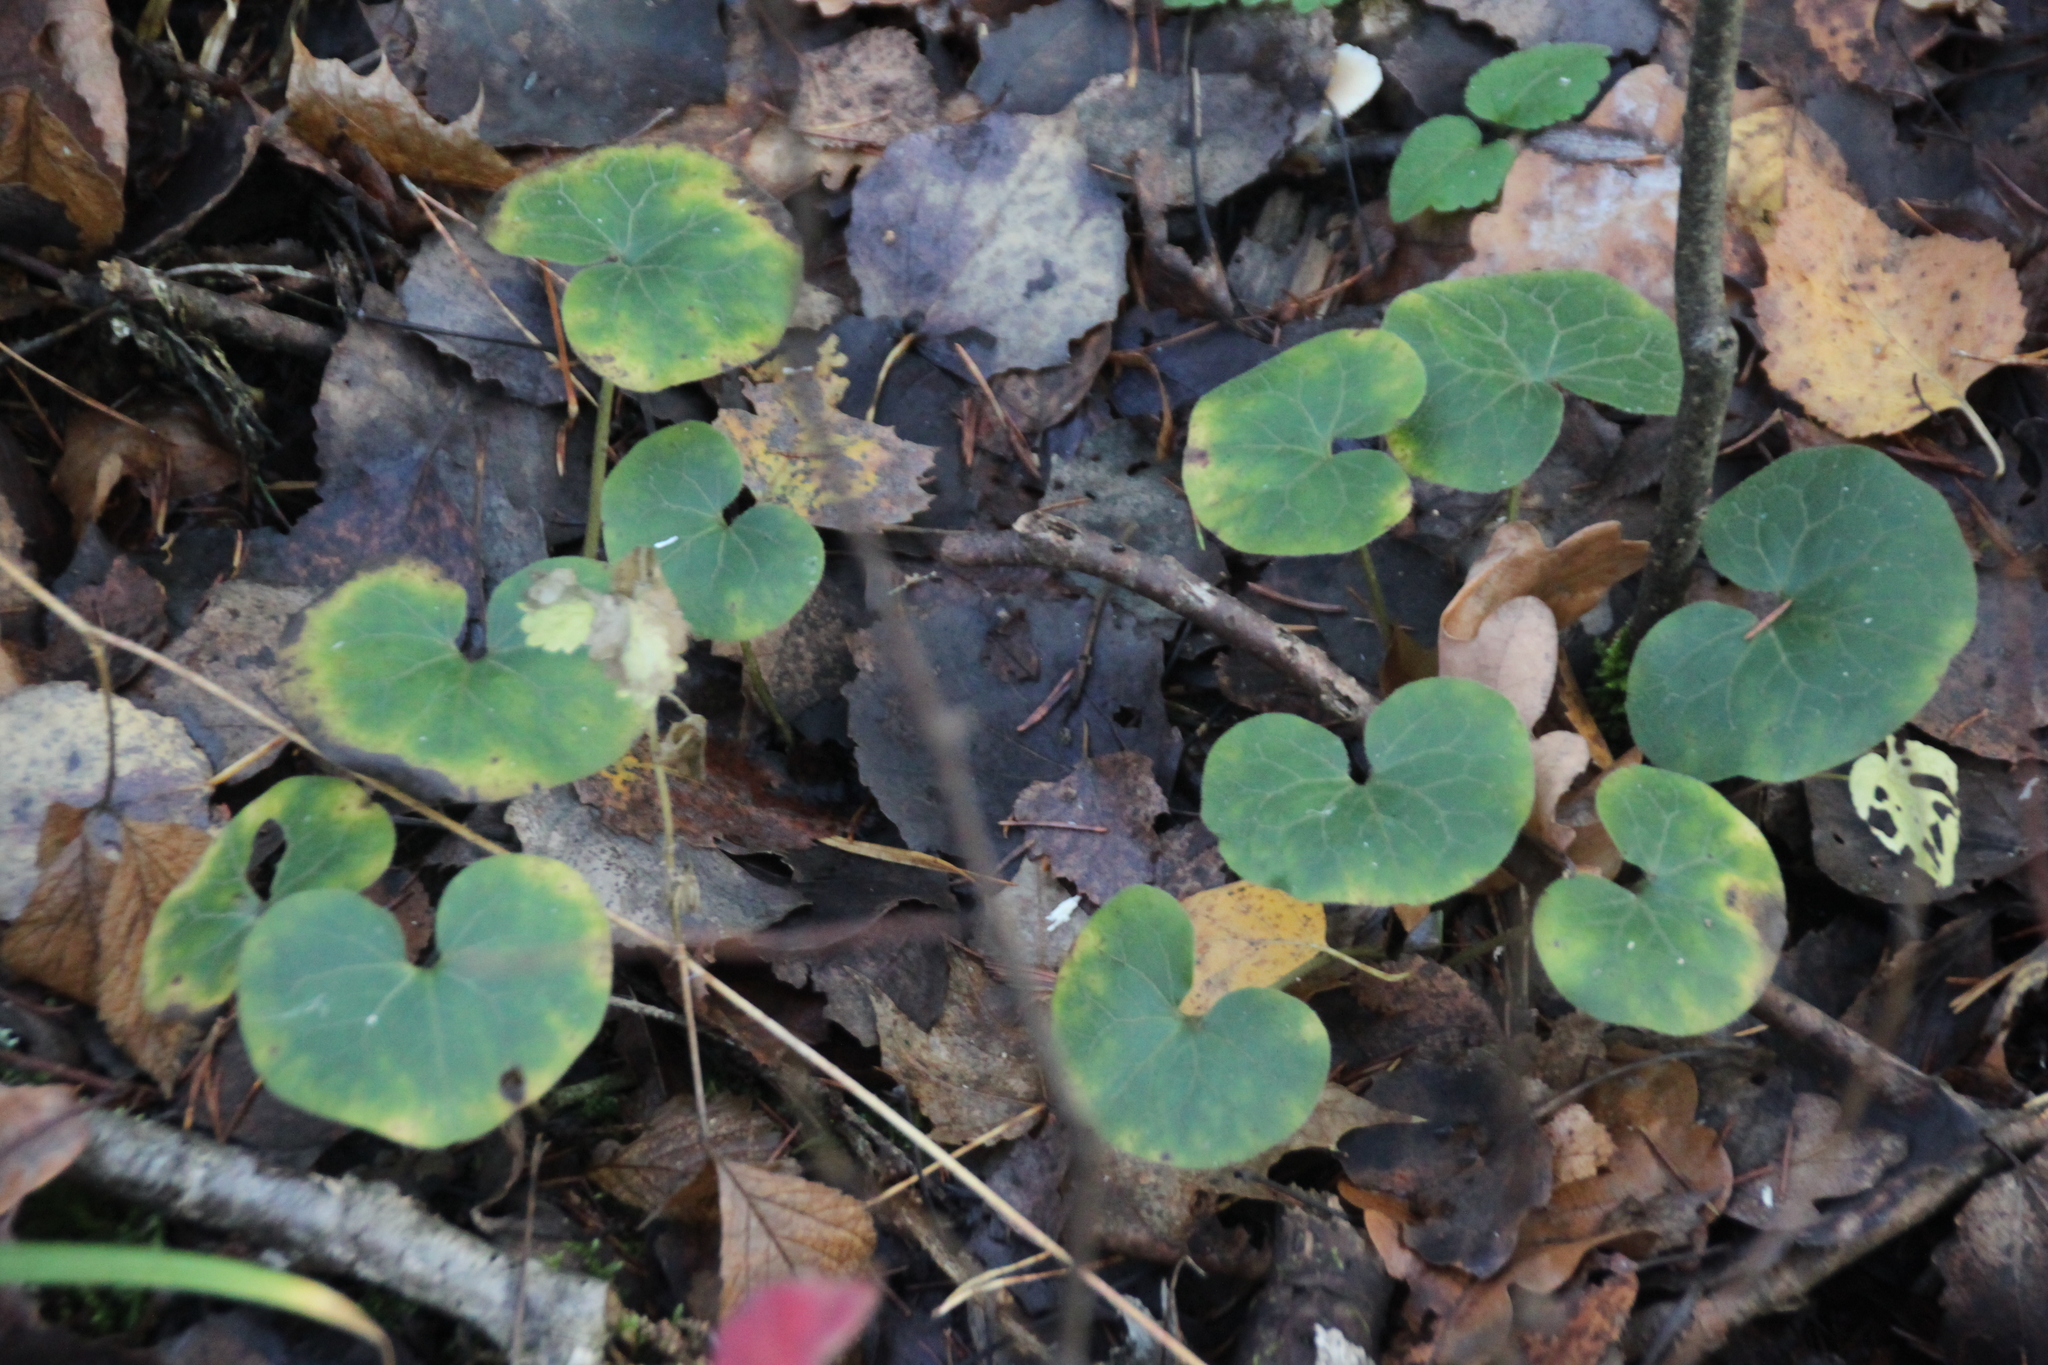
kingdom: Plantae
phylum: Tracheophyta
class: Magnoliopsida
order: Piperales
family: Aristolochiaceae
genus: Asarum
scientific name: Asarum europaeum
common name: Asarabacca
